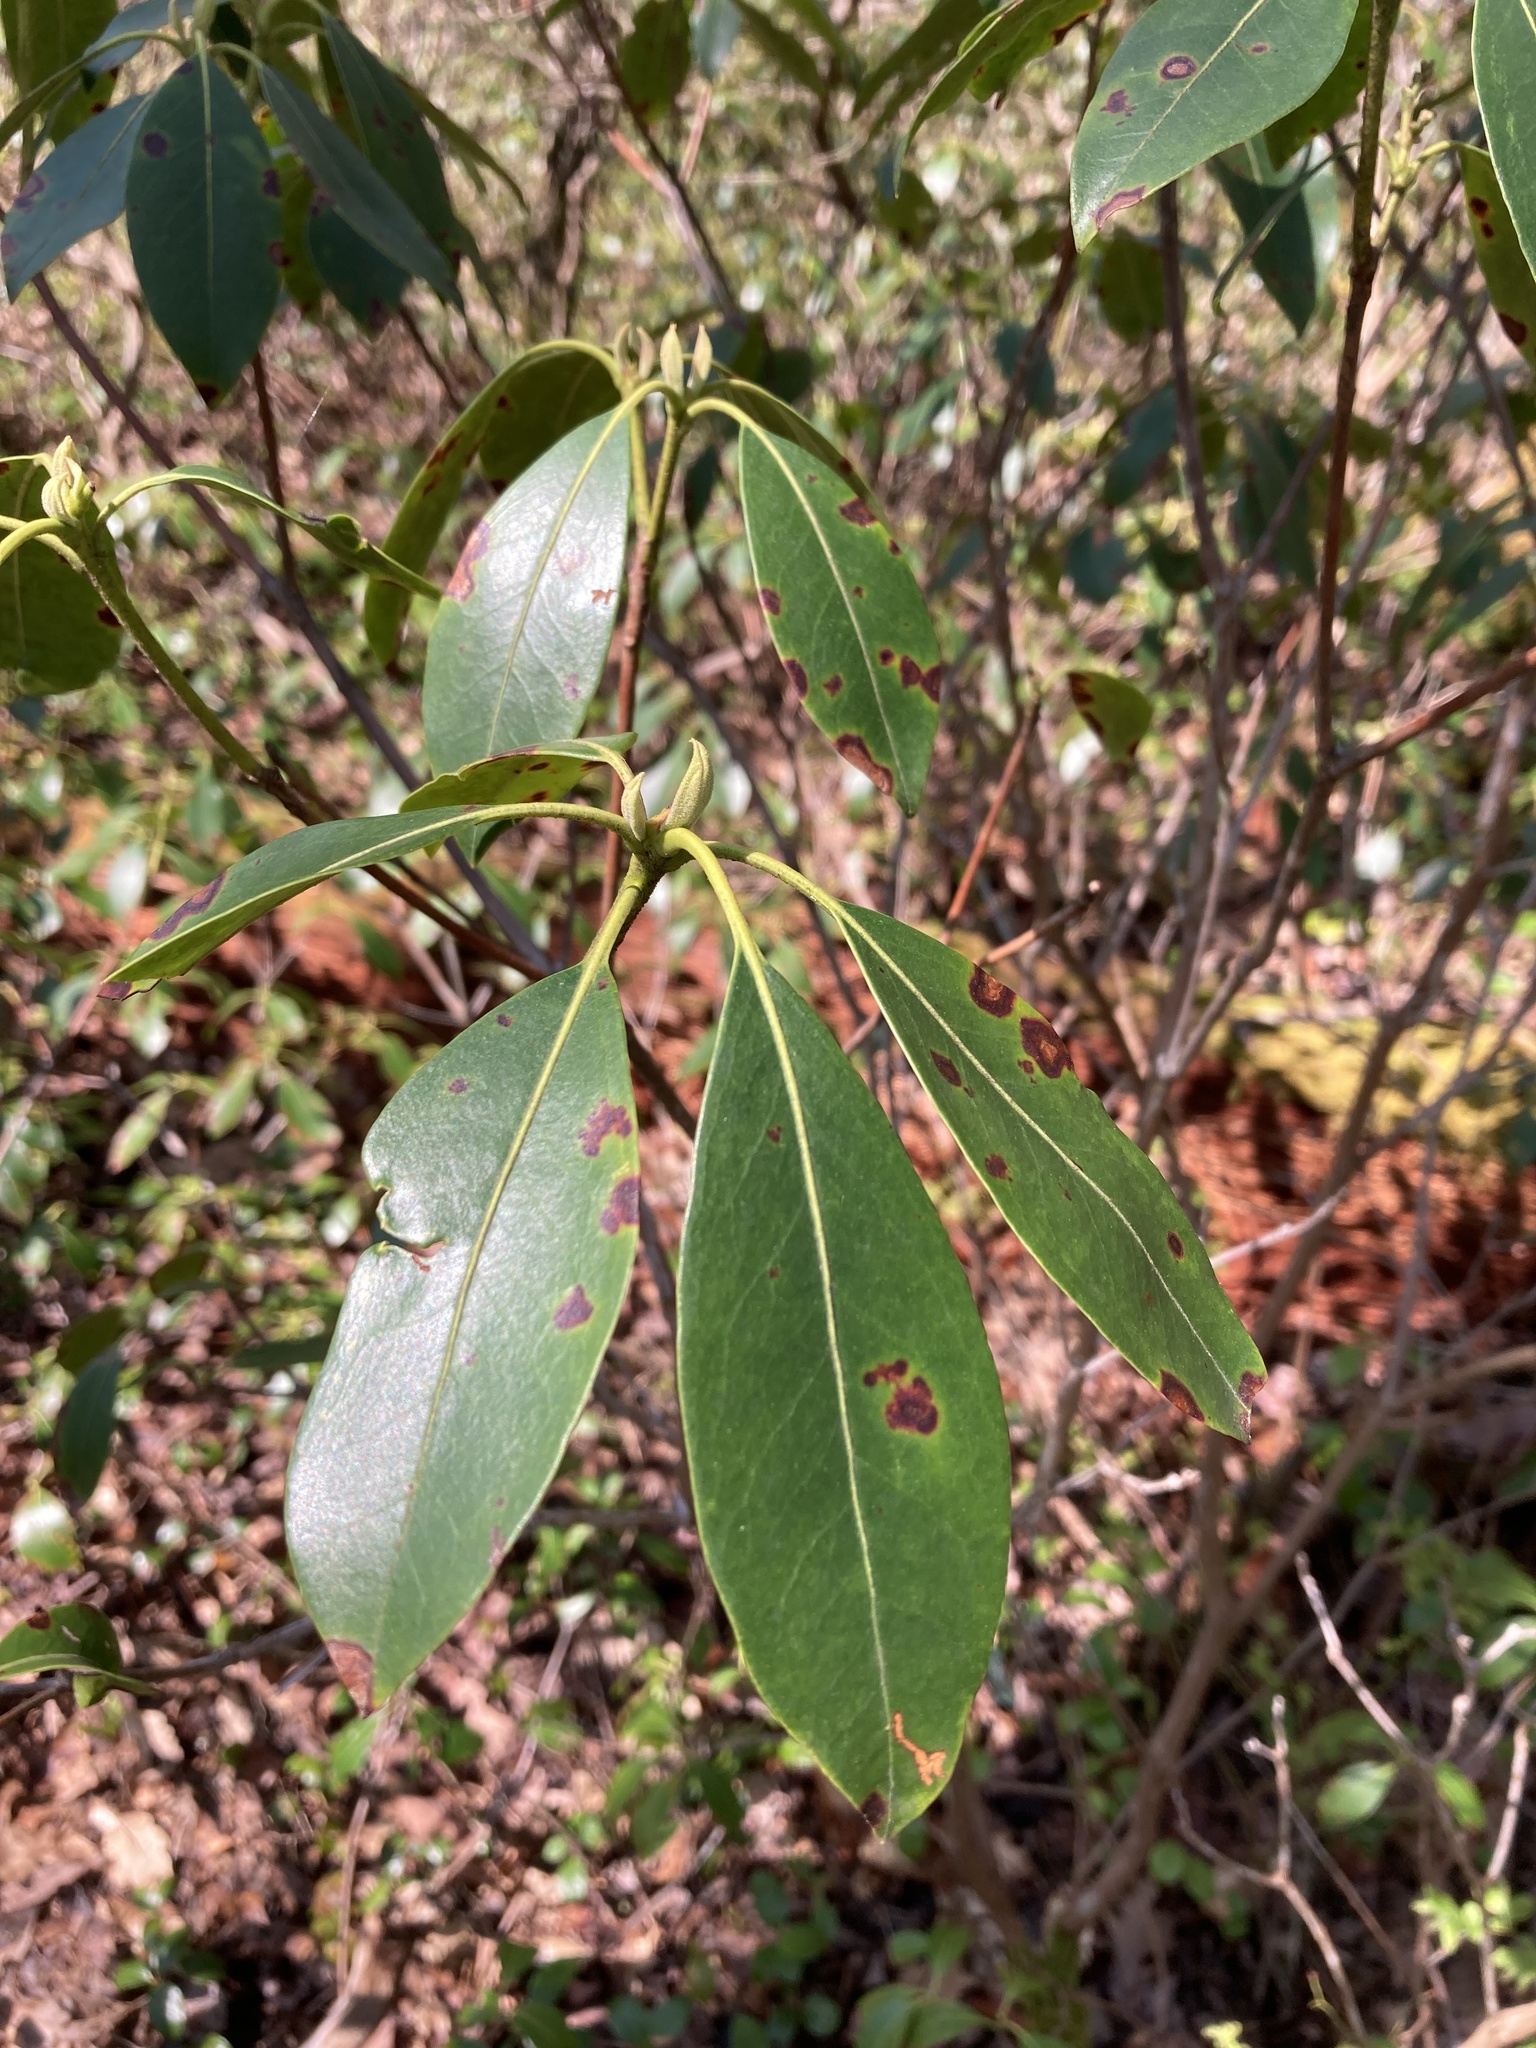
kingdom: Plantae
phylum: Tracheophyta
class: Magnoliopsida
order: Ericales
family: Ericaceae
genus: Kalmia
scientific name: Kalmia latifolia
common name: Mountain-laurel
